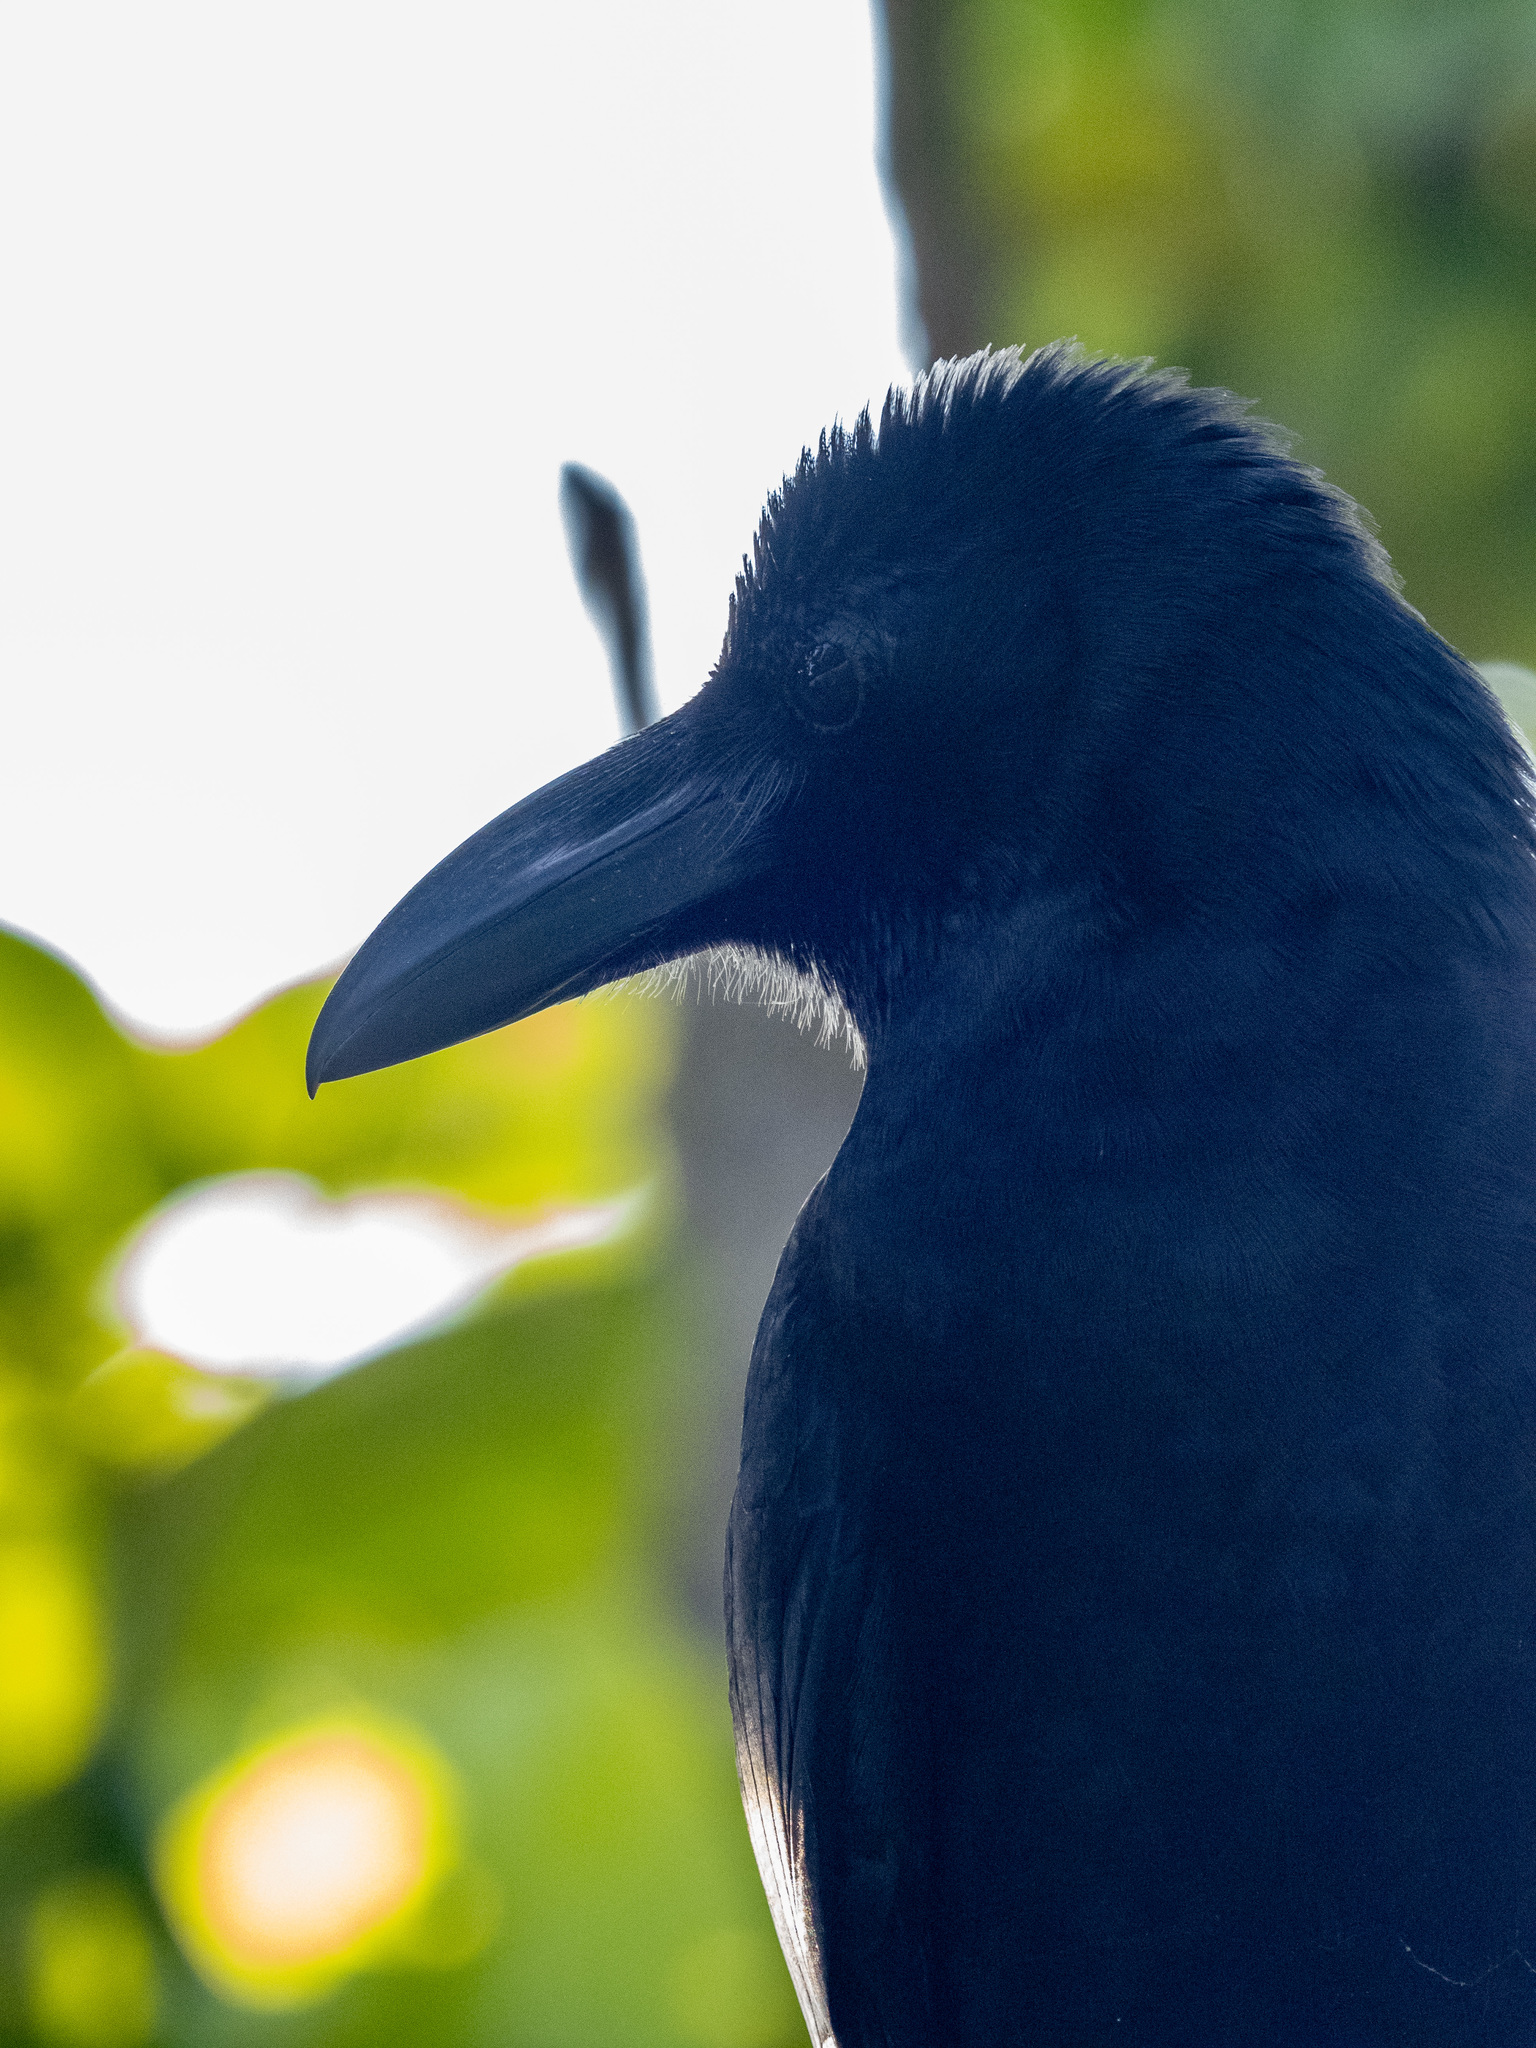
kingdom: Animalia
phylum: Chordata
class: Aves
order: Passeriformes
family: Corvidae
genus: Corvus
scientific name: Corvus macrorhynchos
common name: Large-billed crow
